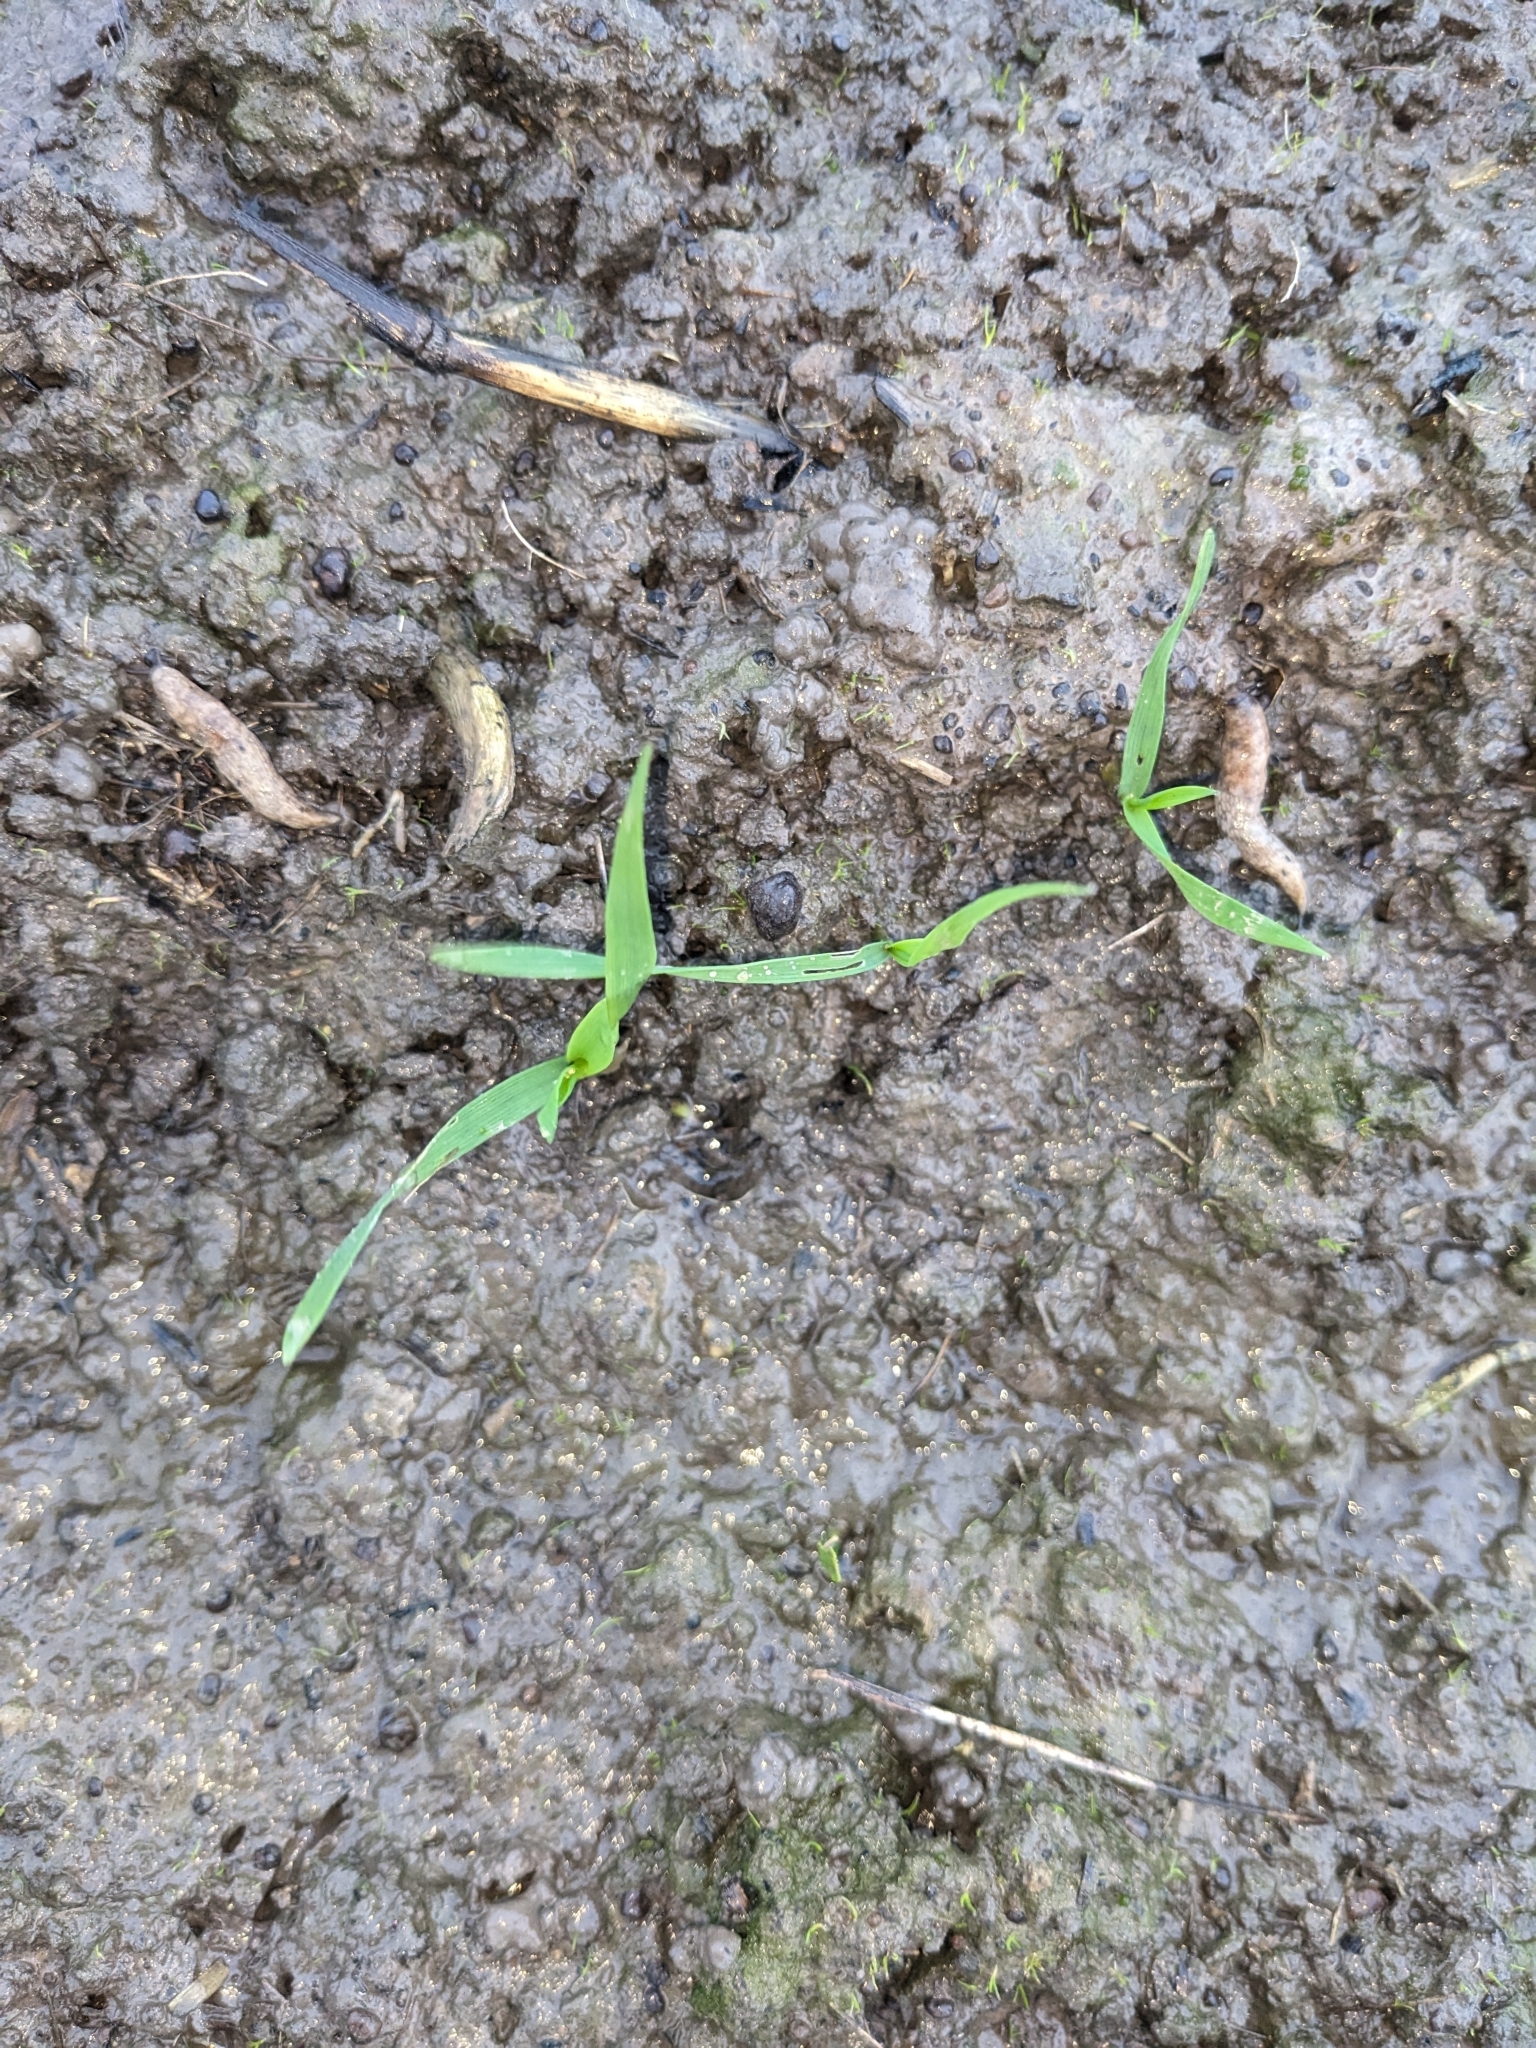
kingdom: Animalia
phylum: Mollusca
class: Gastropoda
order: Stylommatophora
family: Agriolimacidae
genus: Deroceras
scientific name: Deroceras reticulatum
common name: Gray field slug
